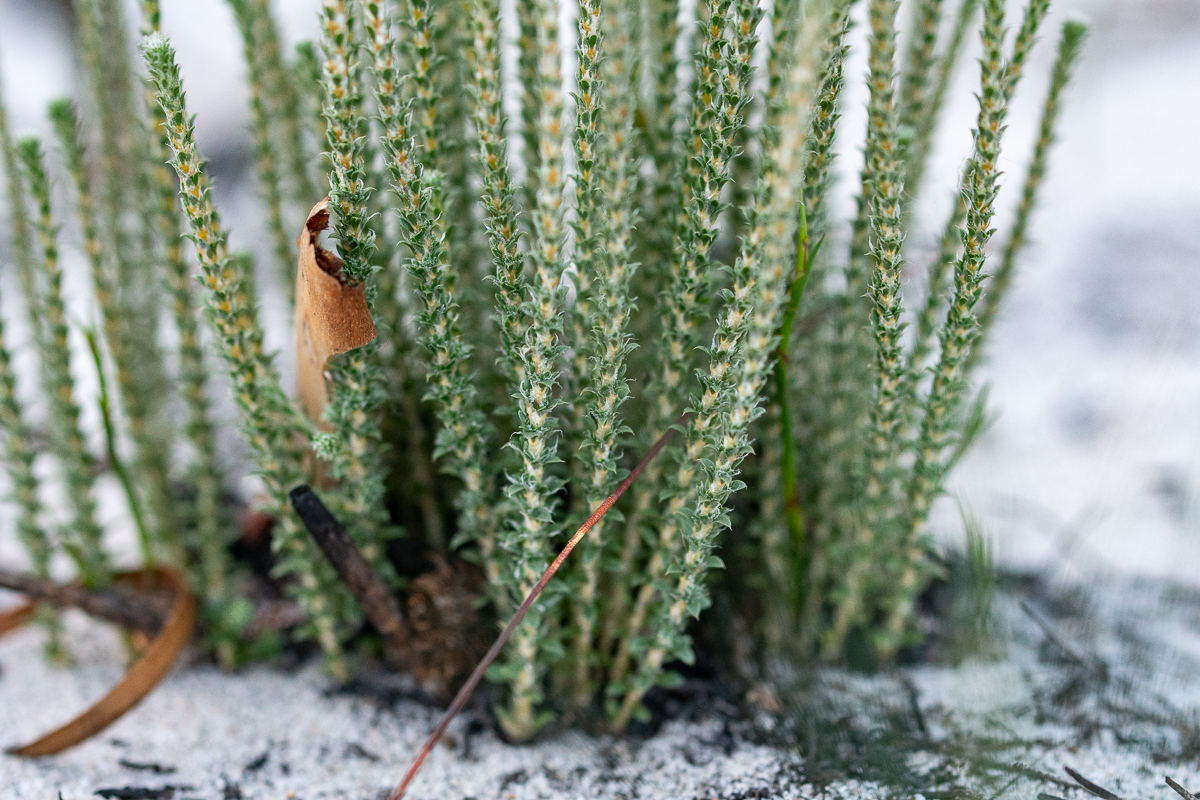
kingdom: Plantae
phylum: Tracheophyta
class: Magnoliopsida
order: Asterales
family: Asteraceae
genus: Lachnospermum
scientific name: Lachnospermum umbellatum
